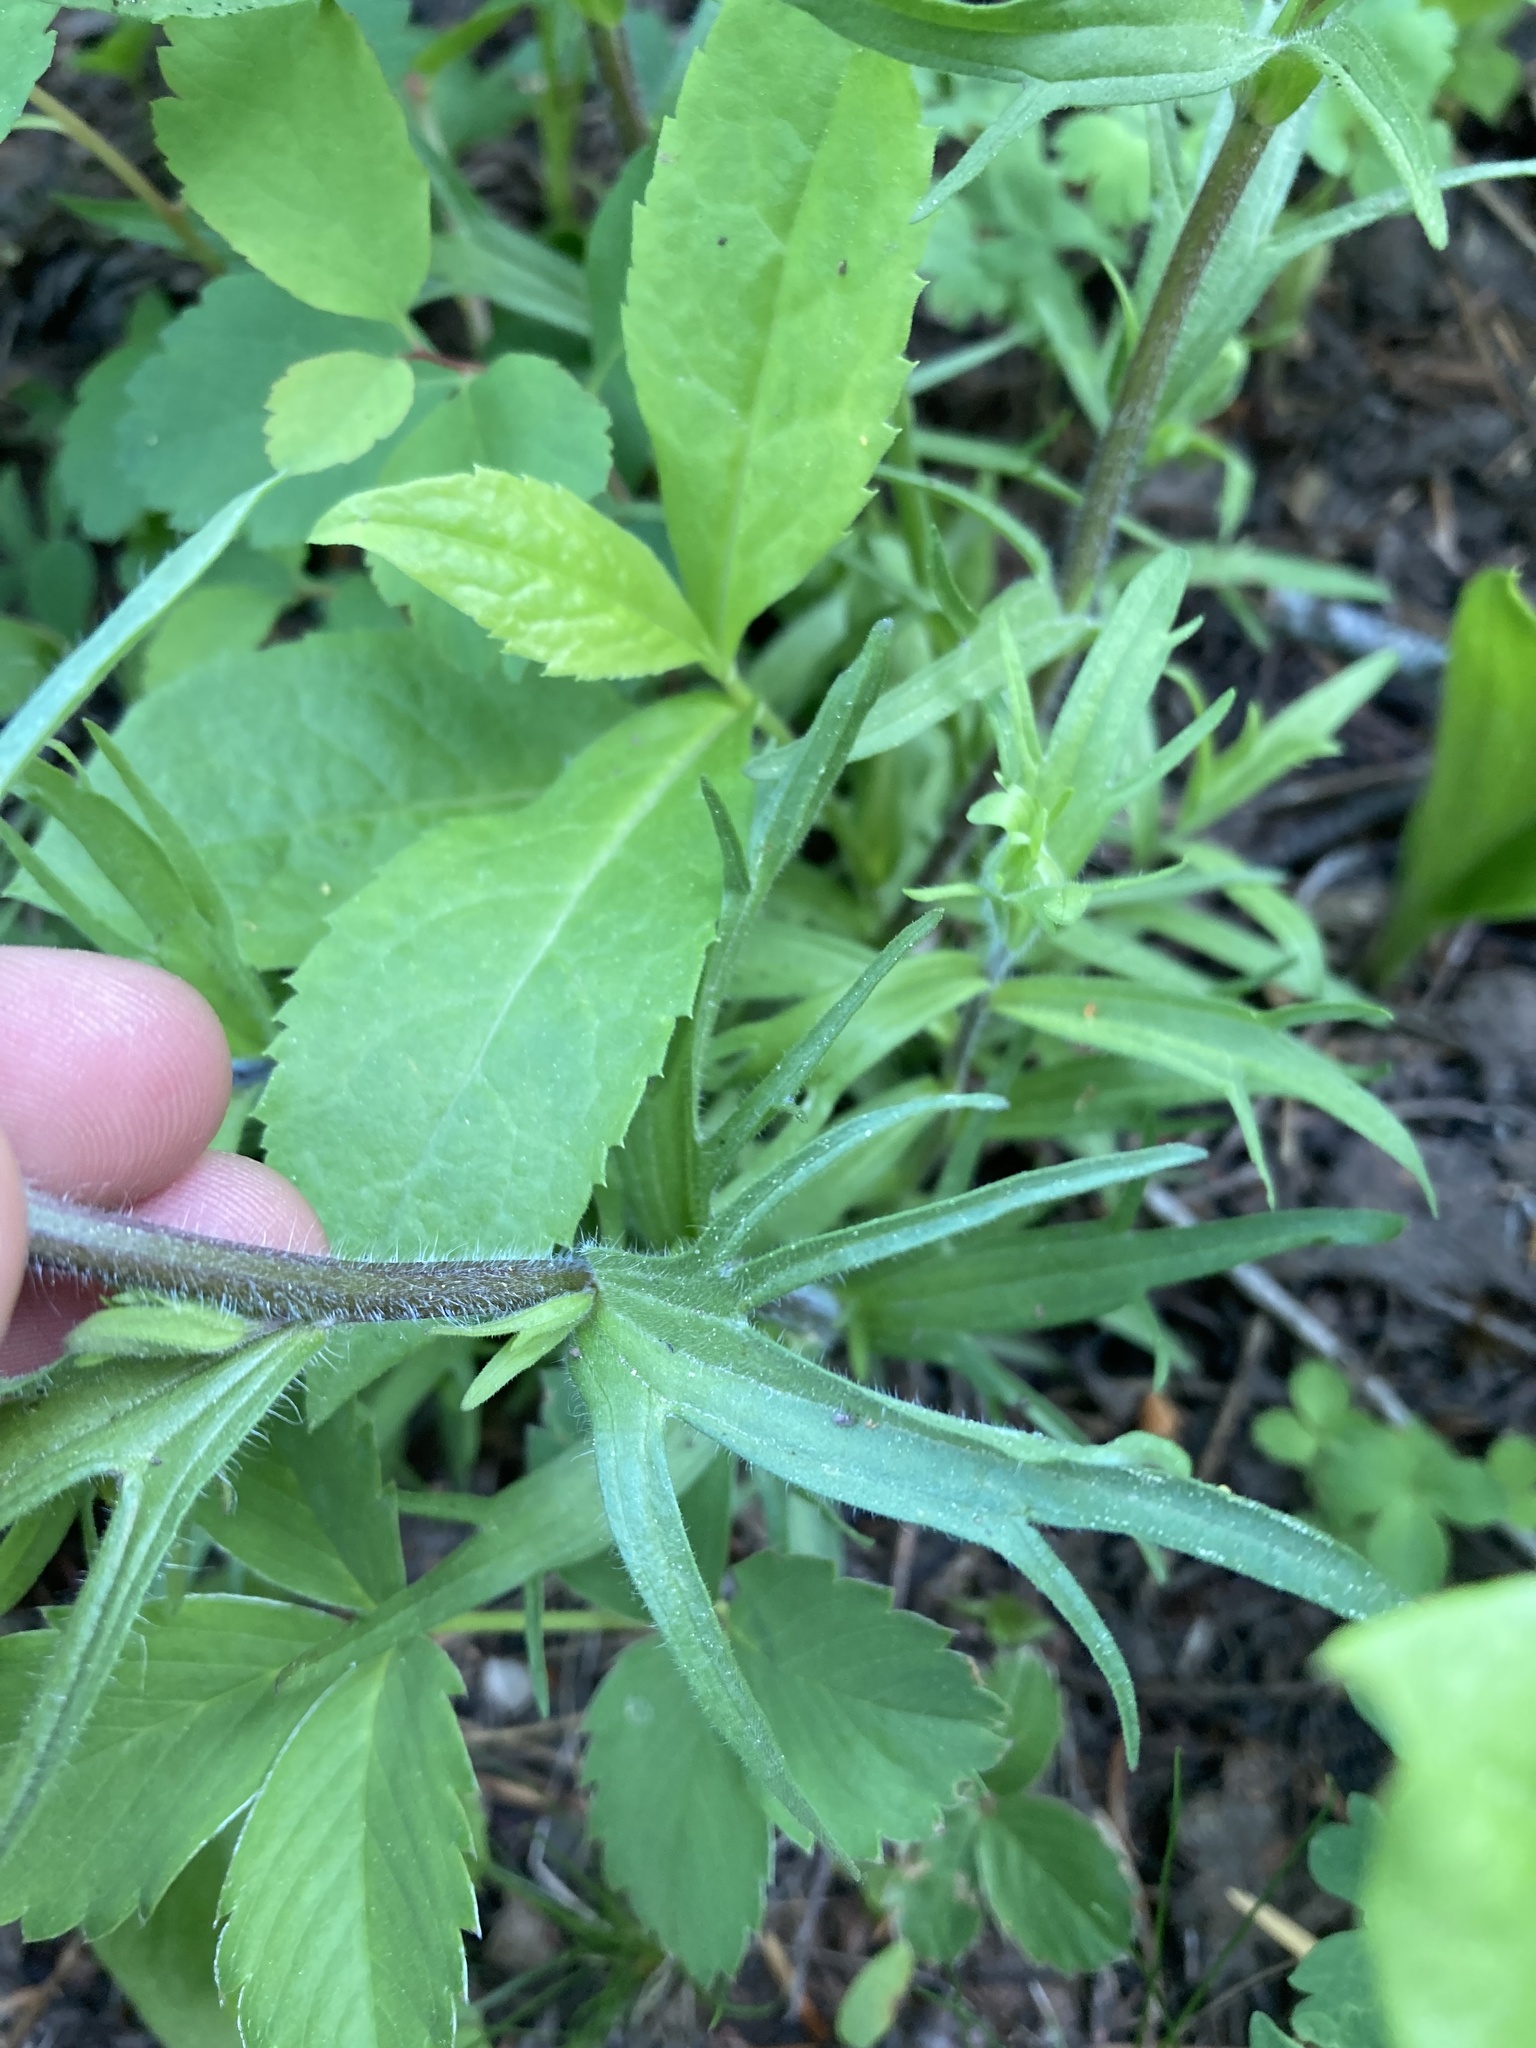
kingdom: Plantae
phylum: Tracheophyta
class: Magnoliopsida
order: Lamiales
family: Orobanchaceae
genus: Castilleja
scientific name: Castilleja hispida
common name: Bristly paintbrush
